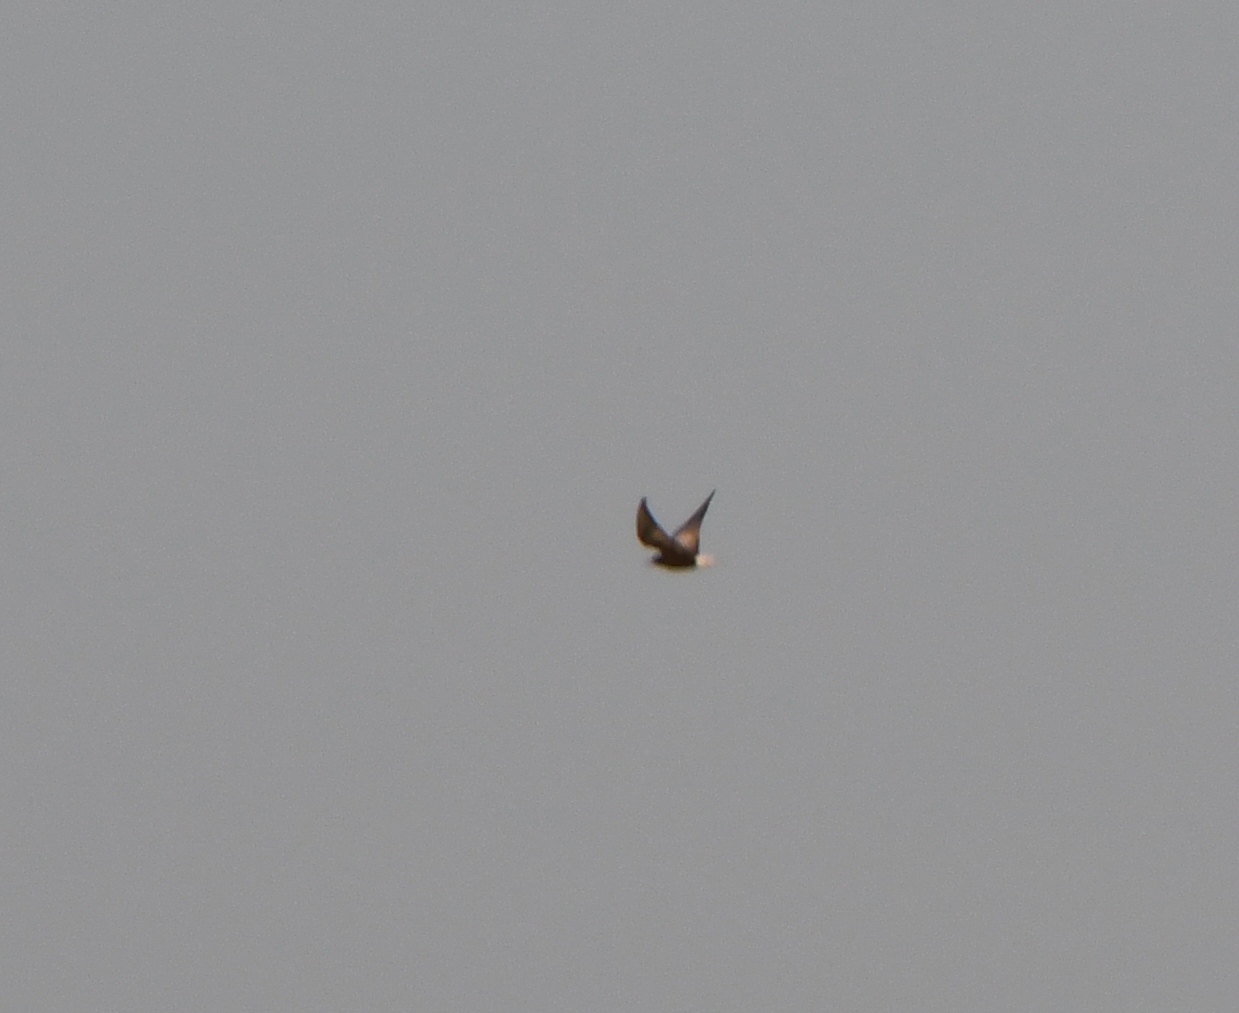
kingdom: Animalia
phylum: Chordata
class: Aves
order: Charadriiformes
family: Laridae
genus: Chlidonias
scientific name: Chlidonias niger
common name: Black tern
